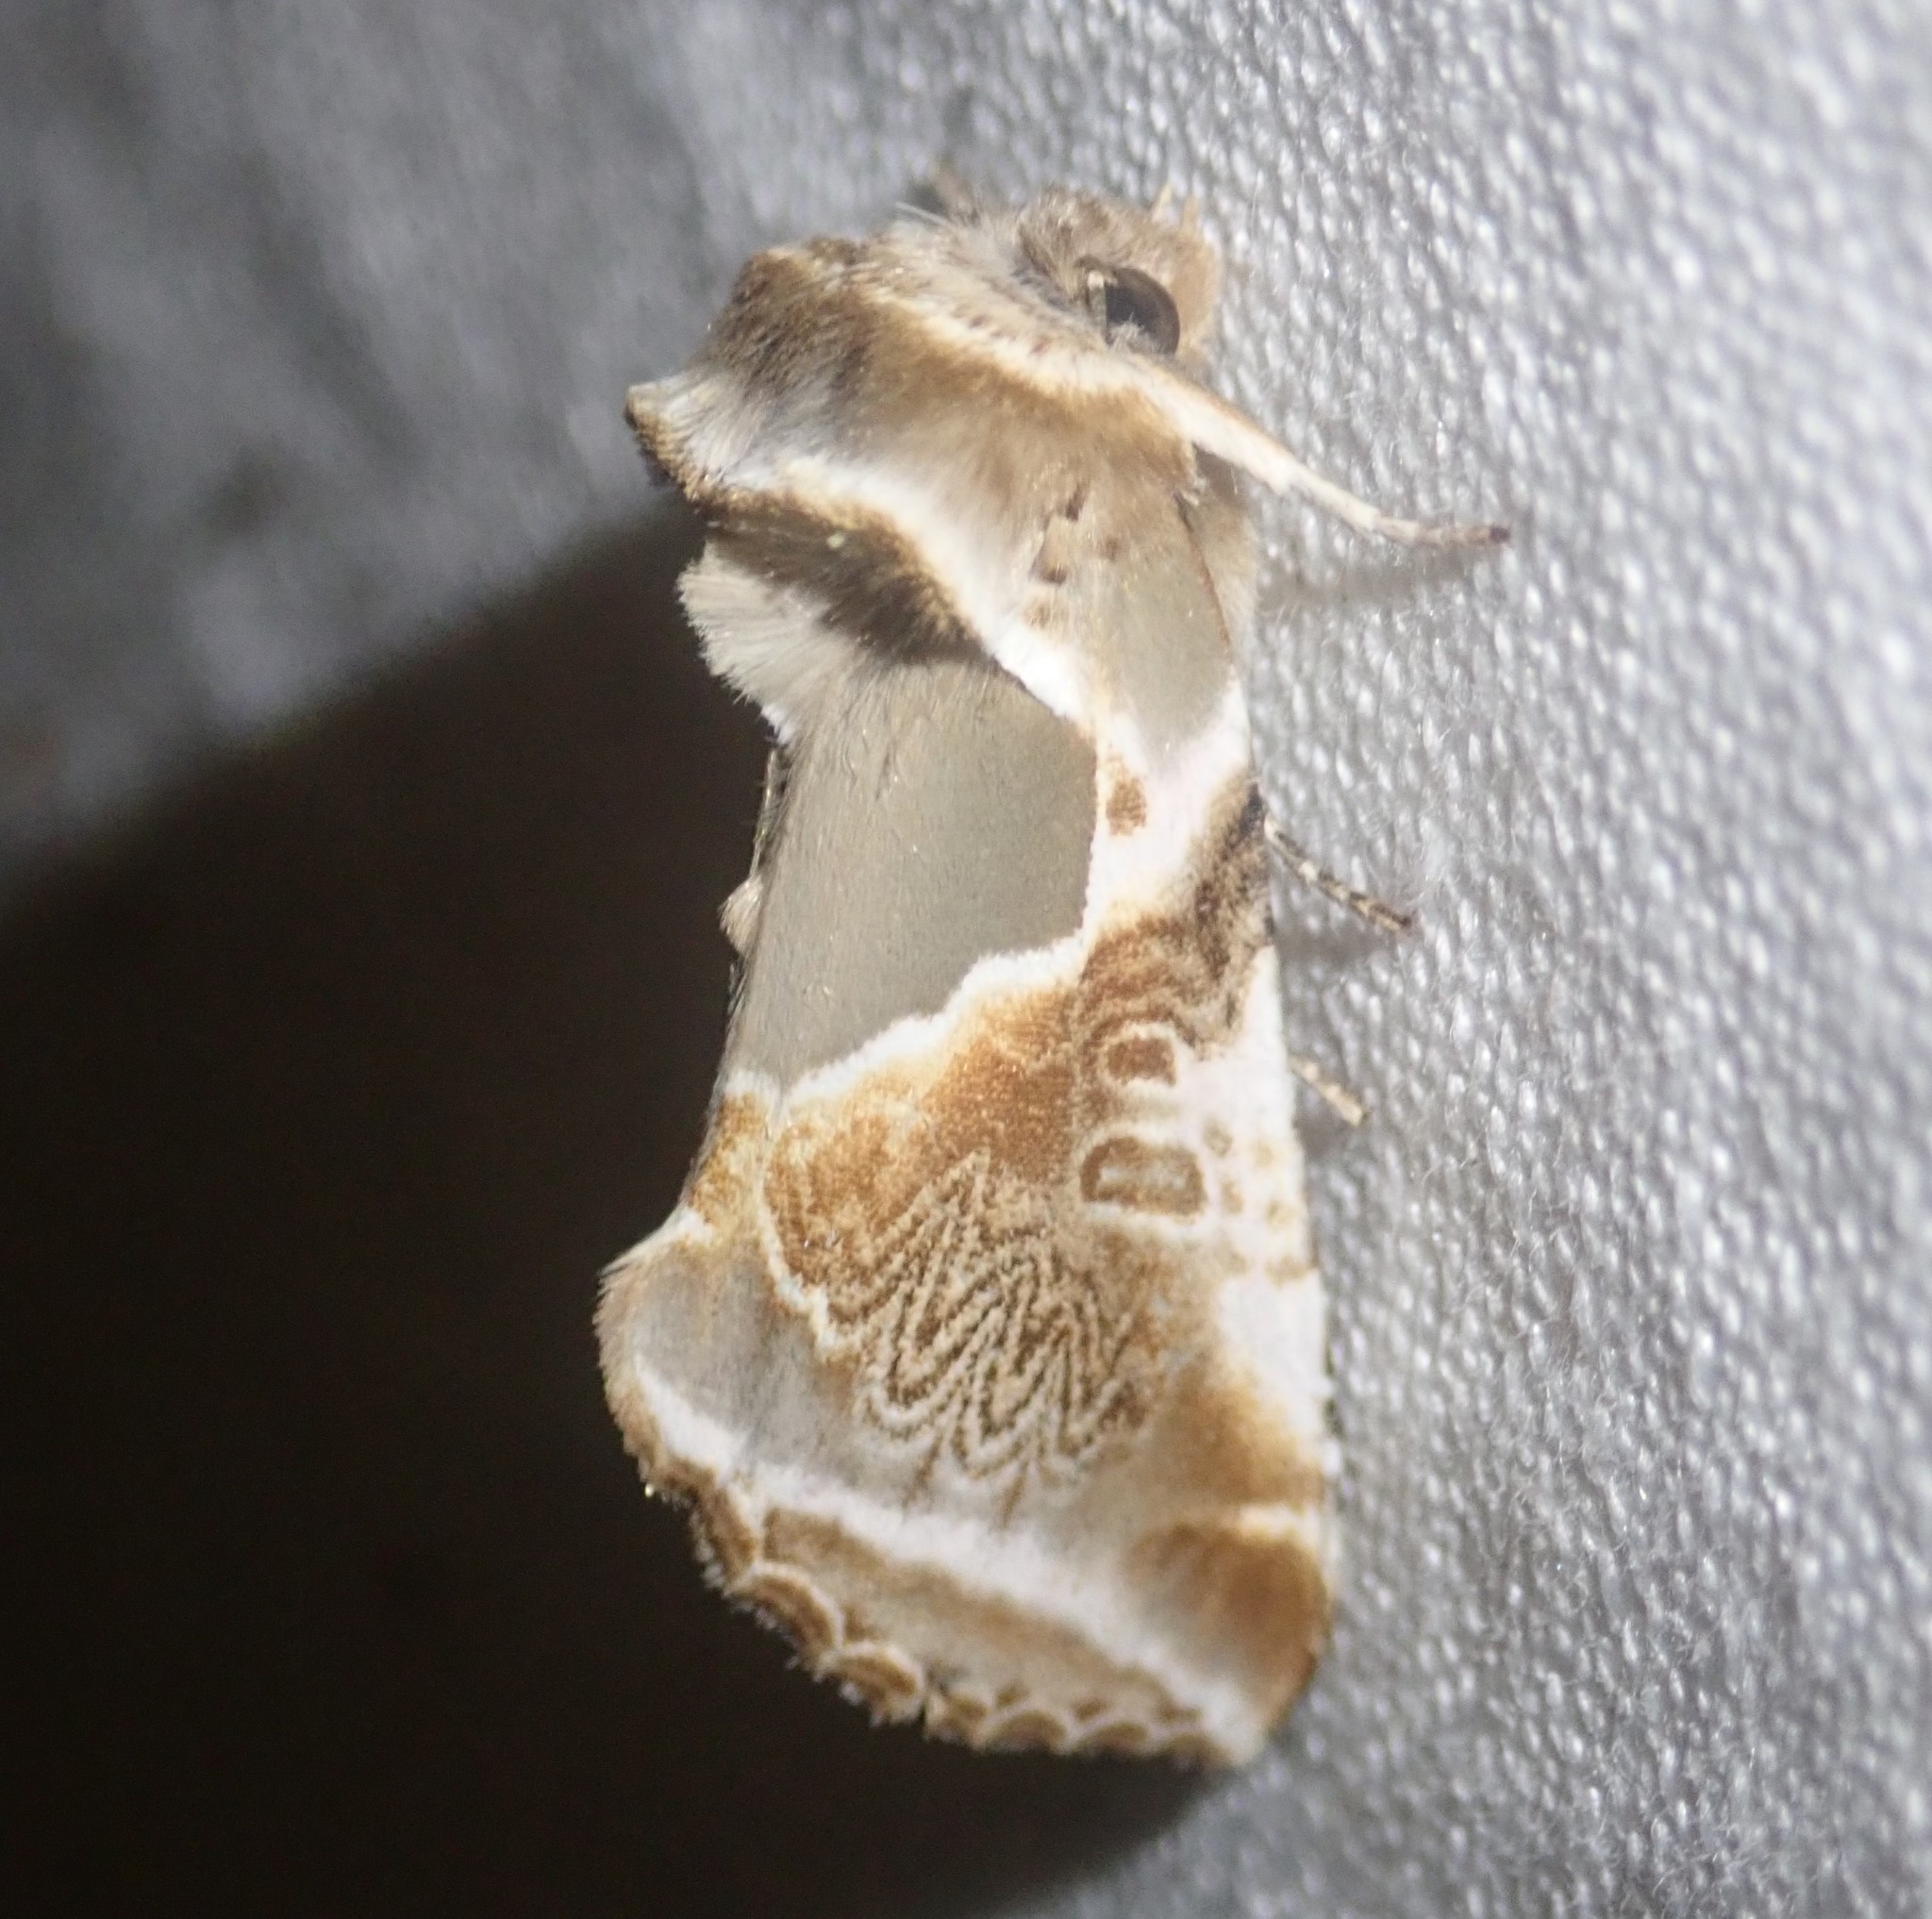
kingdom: Animalia
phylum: Arthropoda
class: Insecta
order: Lepidoptera
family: Drepanidae
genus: Habrosyne
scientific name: Habrosyne pyritoides
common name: Buff arches
